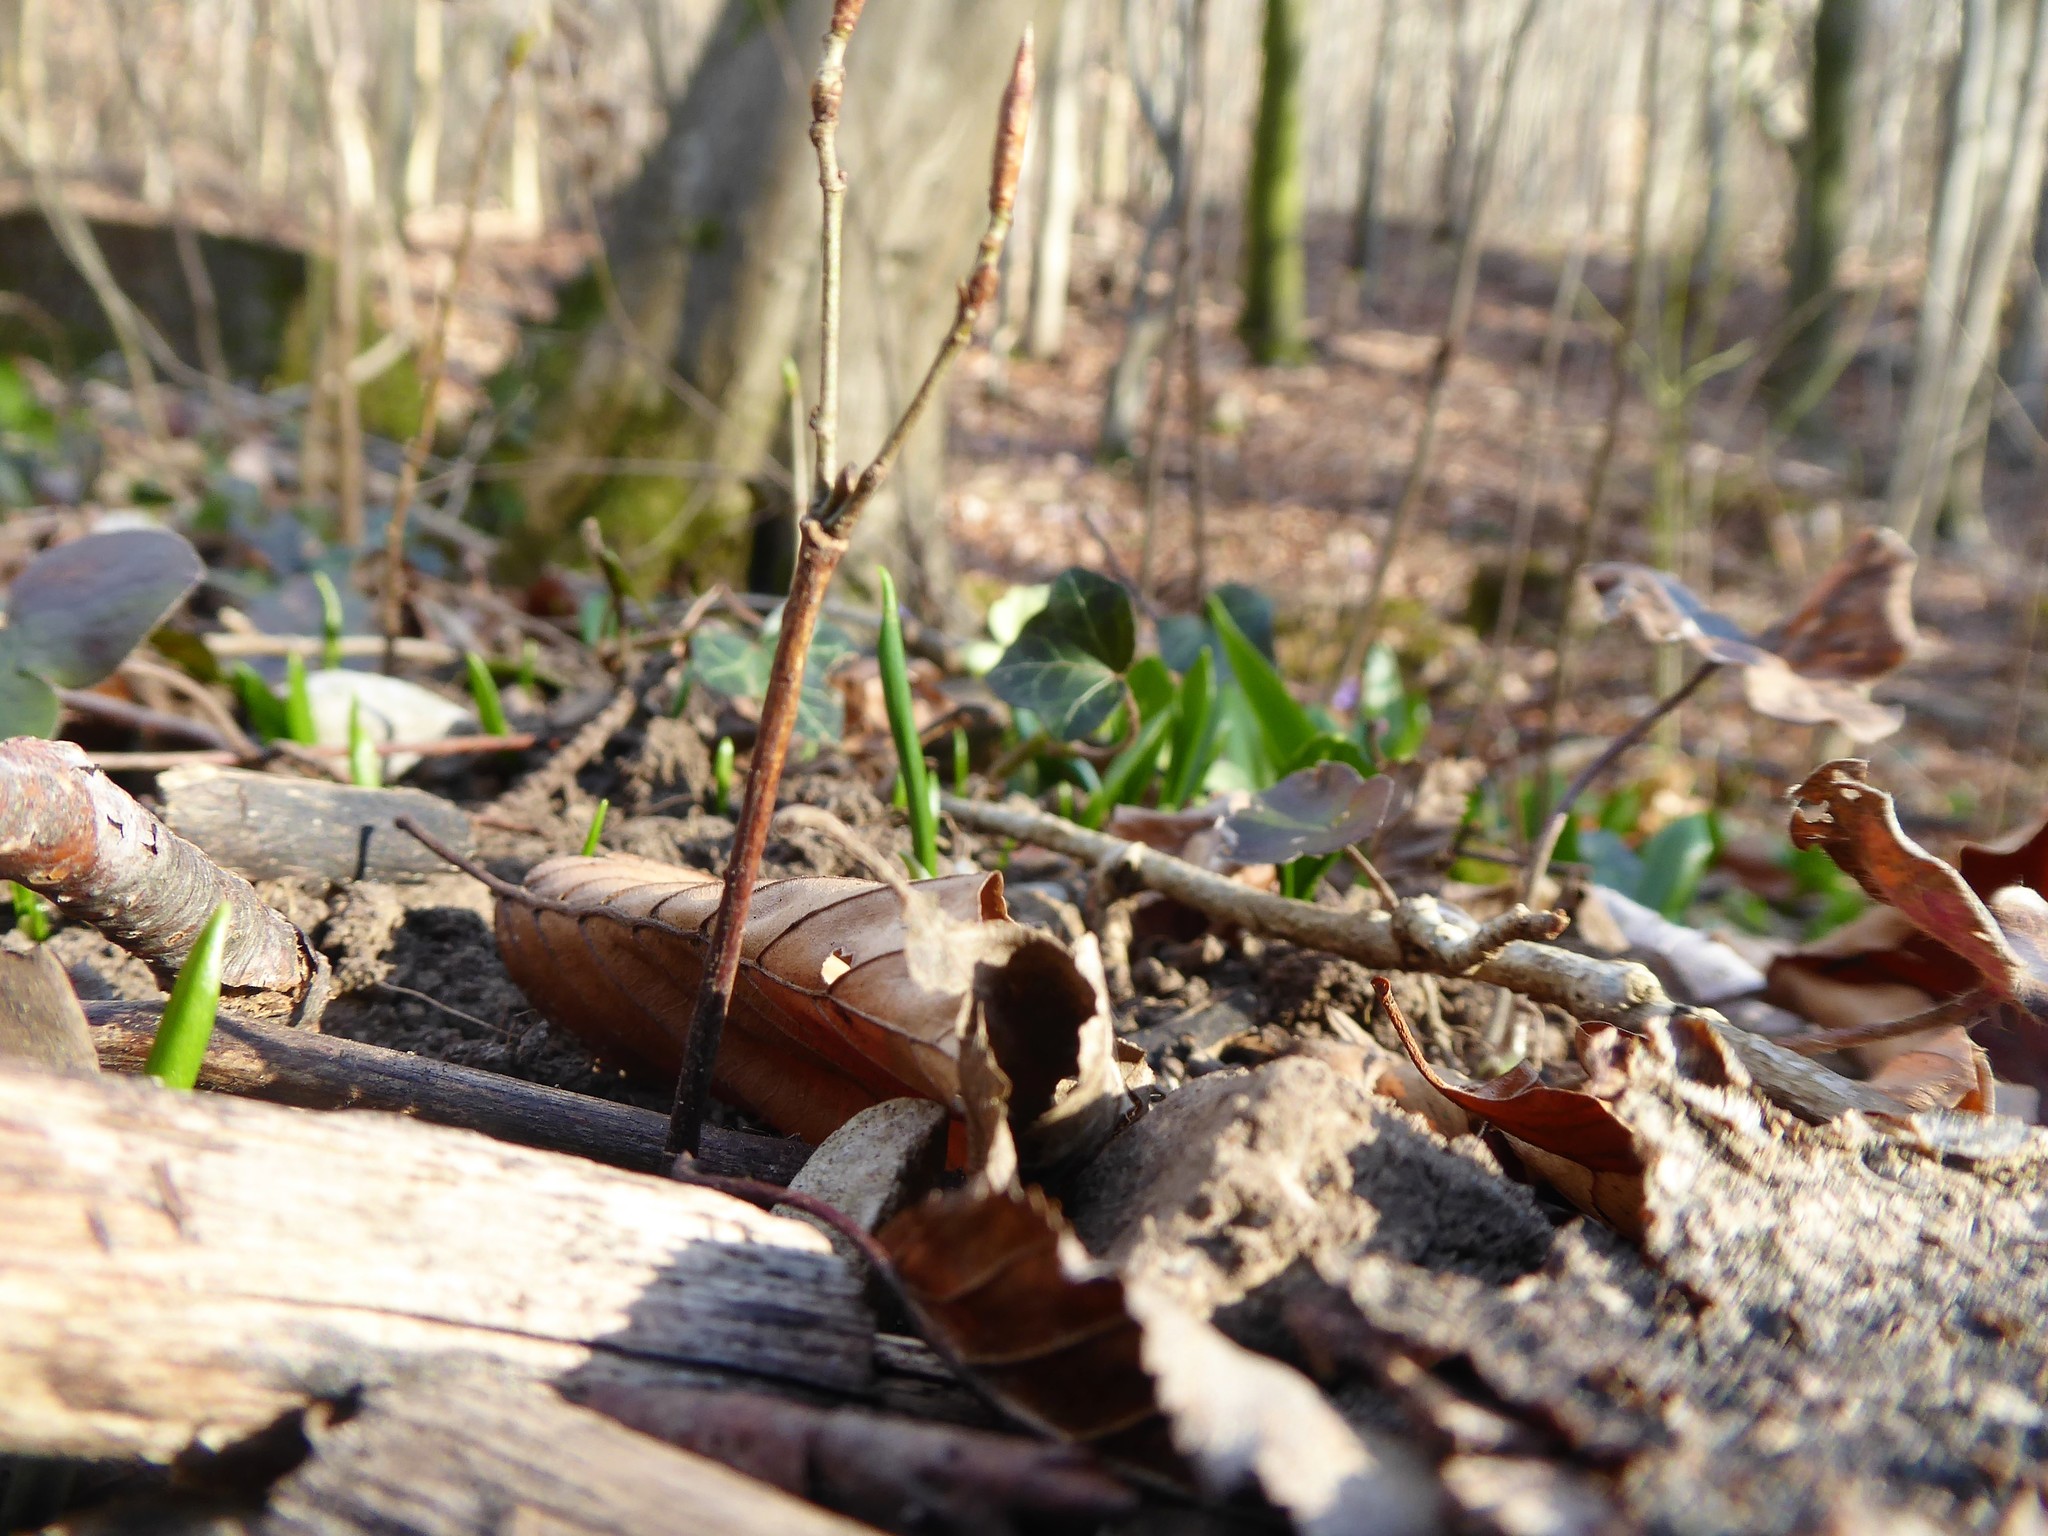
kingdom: Plantae
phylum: Tracheophyta
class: Liliopsida
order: Asparagales
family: Amaryllidaceae
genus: Allium
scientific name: Allium ursinum
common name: Ramsons
